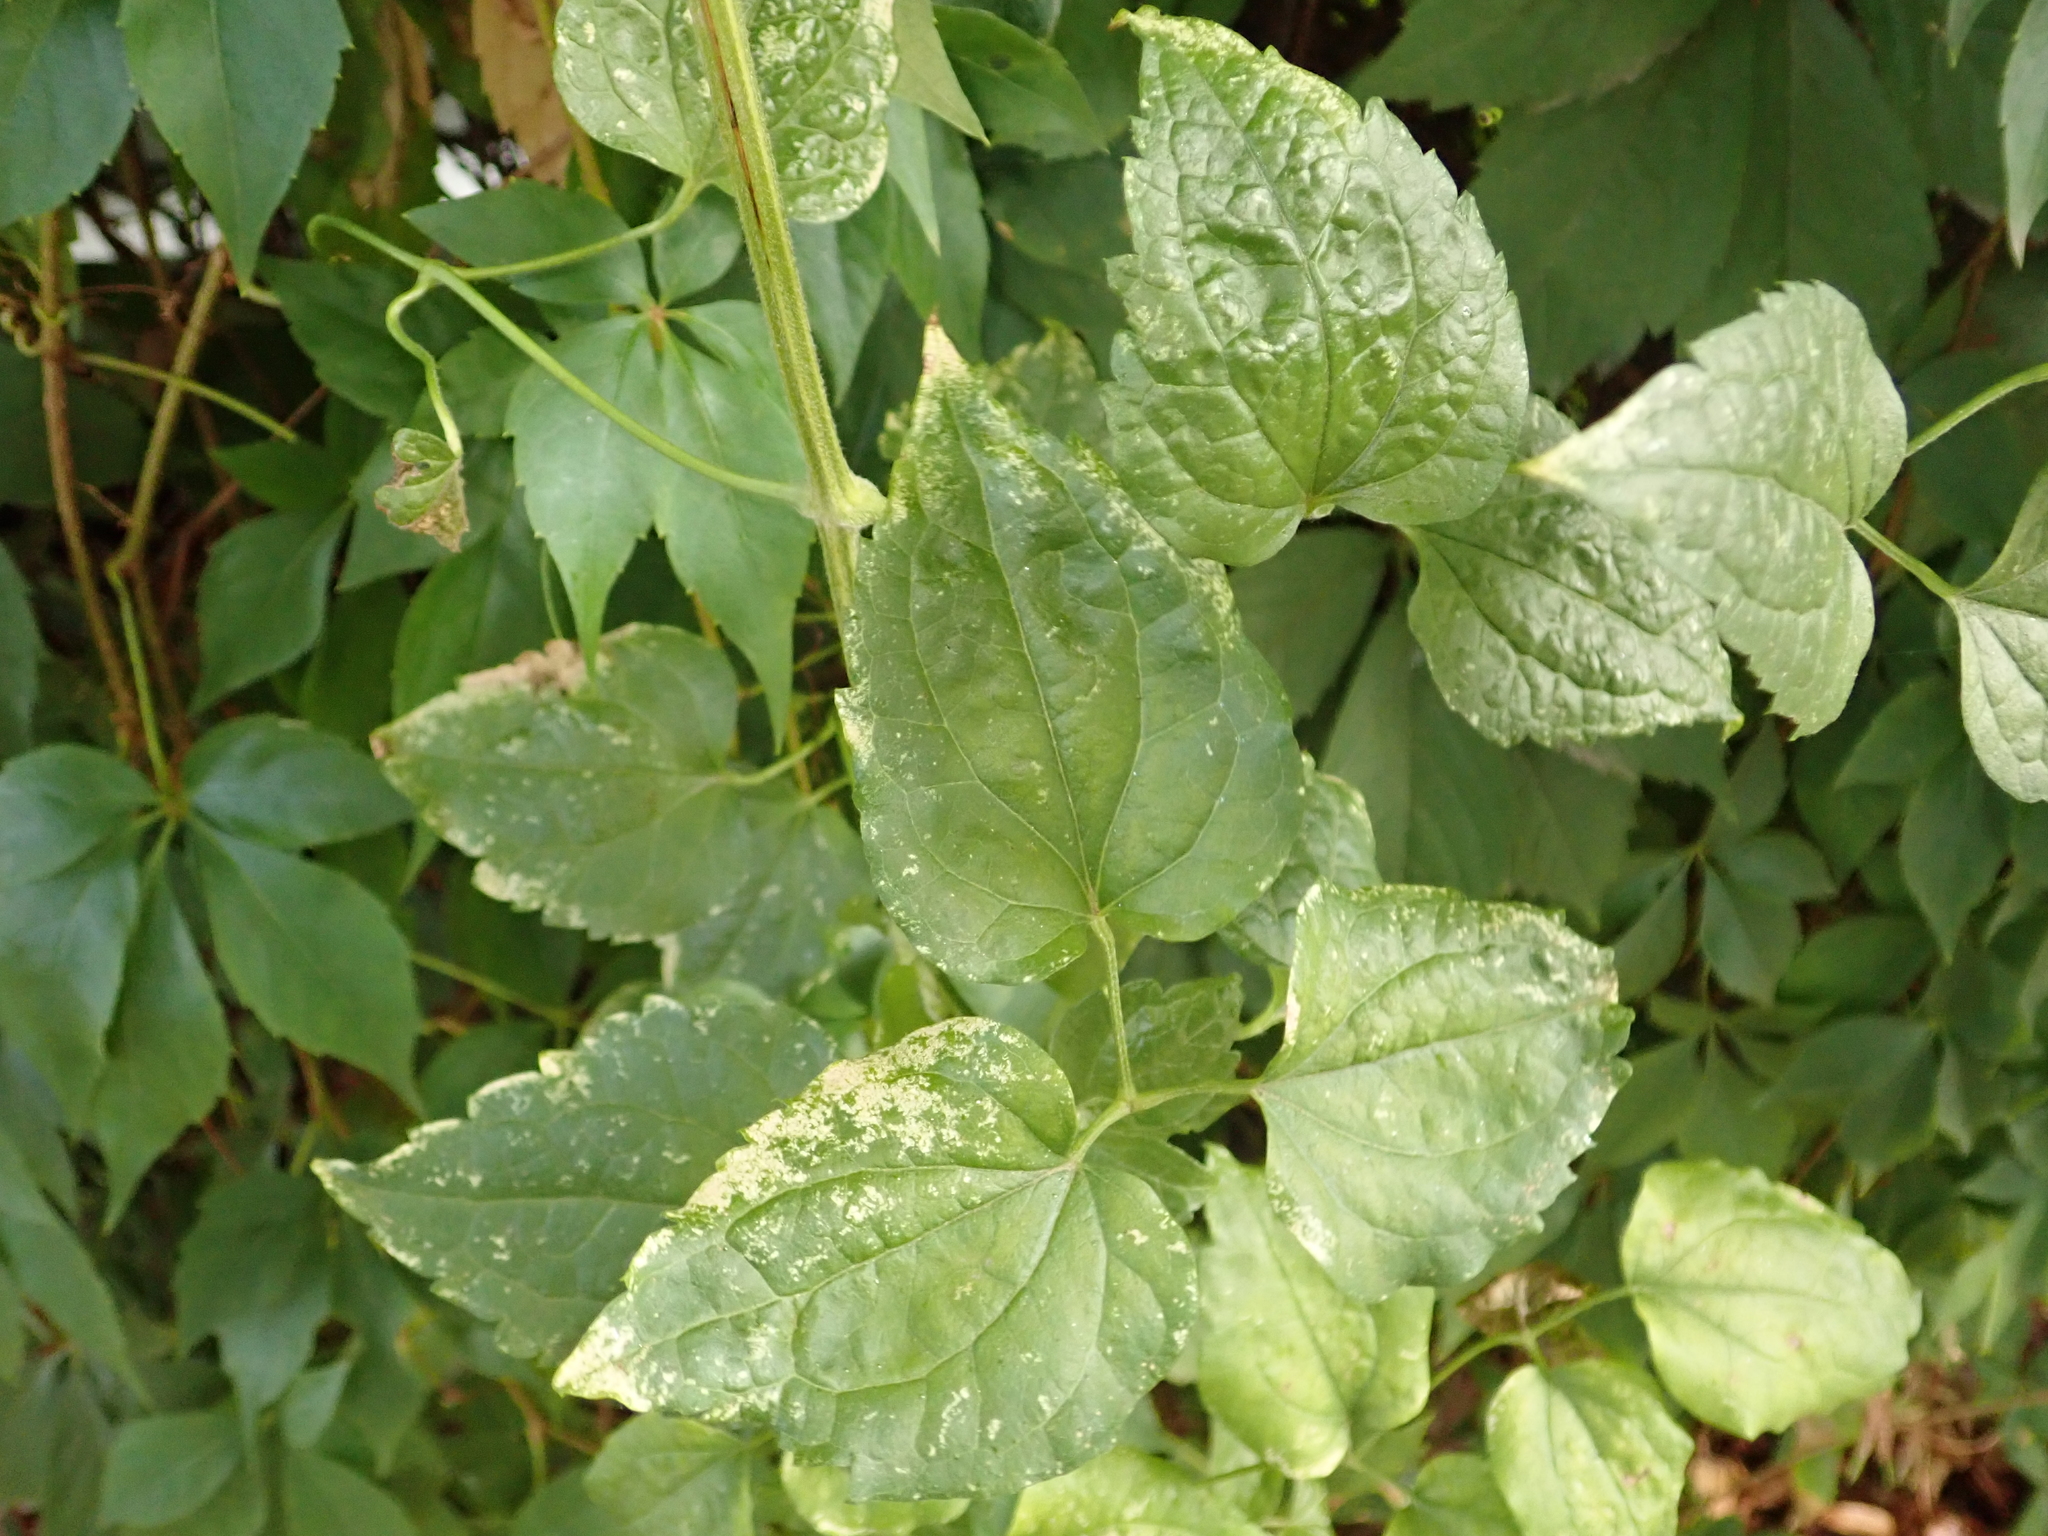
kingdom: Plantae
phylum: Tracheophyta
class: Magnoliopsida
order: Ranunculales
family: Ranunculaceae
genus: Clematis
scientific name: Clematis vitalba
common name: Evergreen clematis
